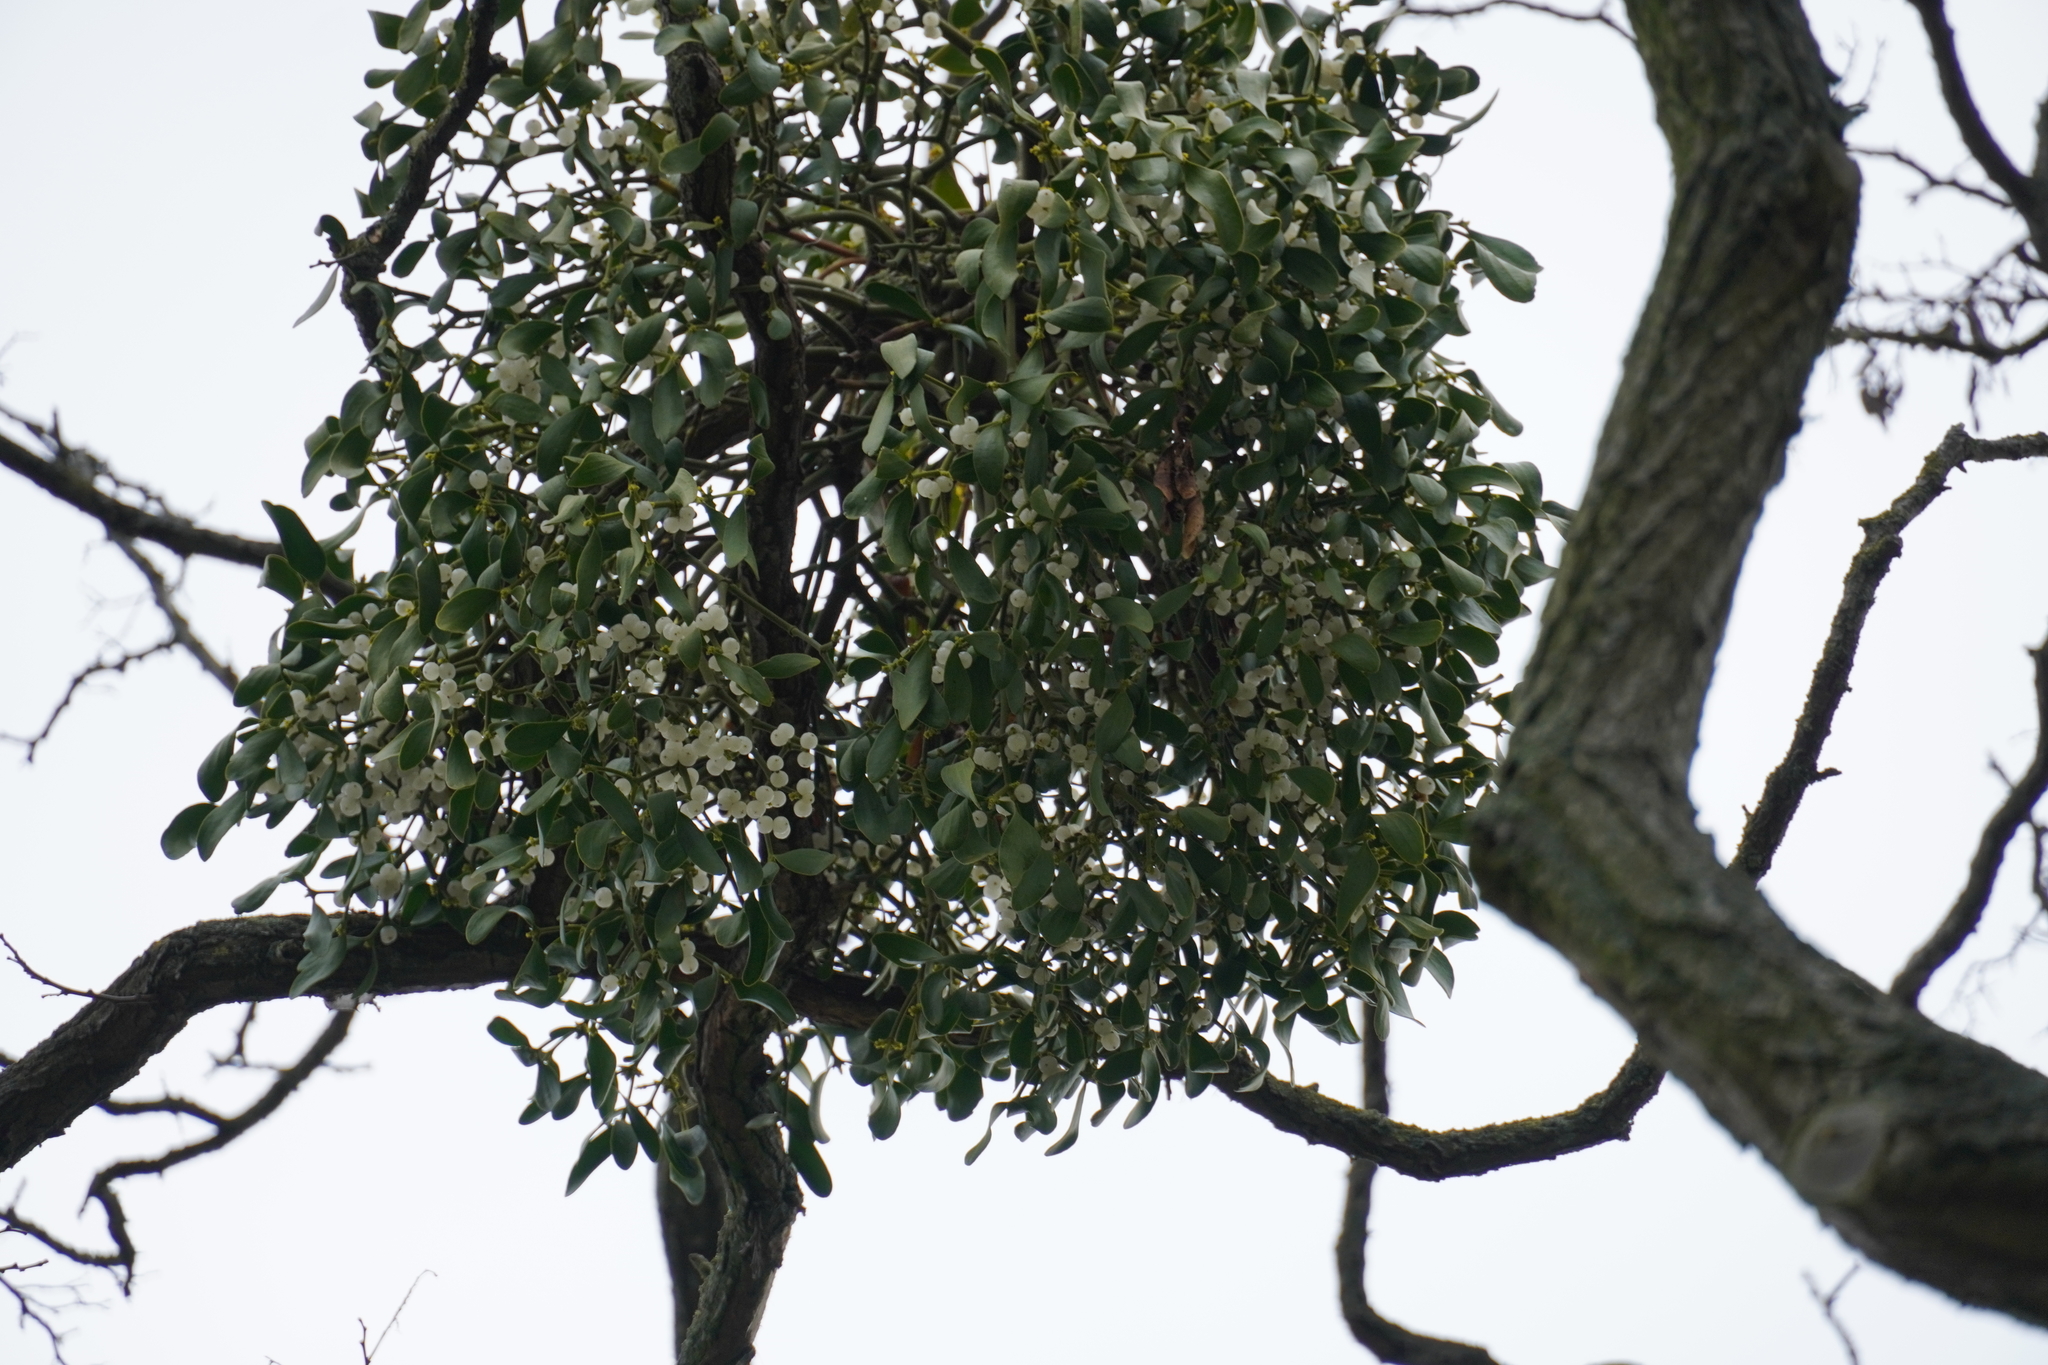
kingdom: Plantae
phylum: Tracheophyta
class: Magnoliopsida
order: Santalales
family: Viscaceae
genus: Viscum
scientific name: Viscum album
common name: Mistletoe
